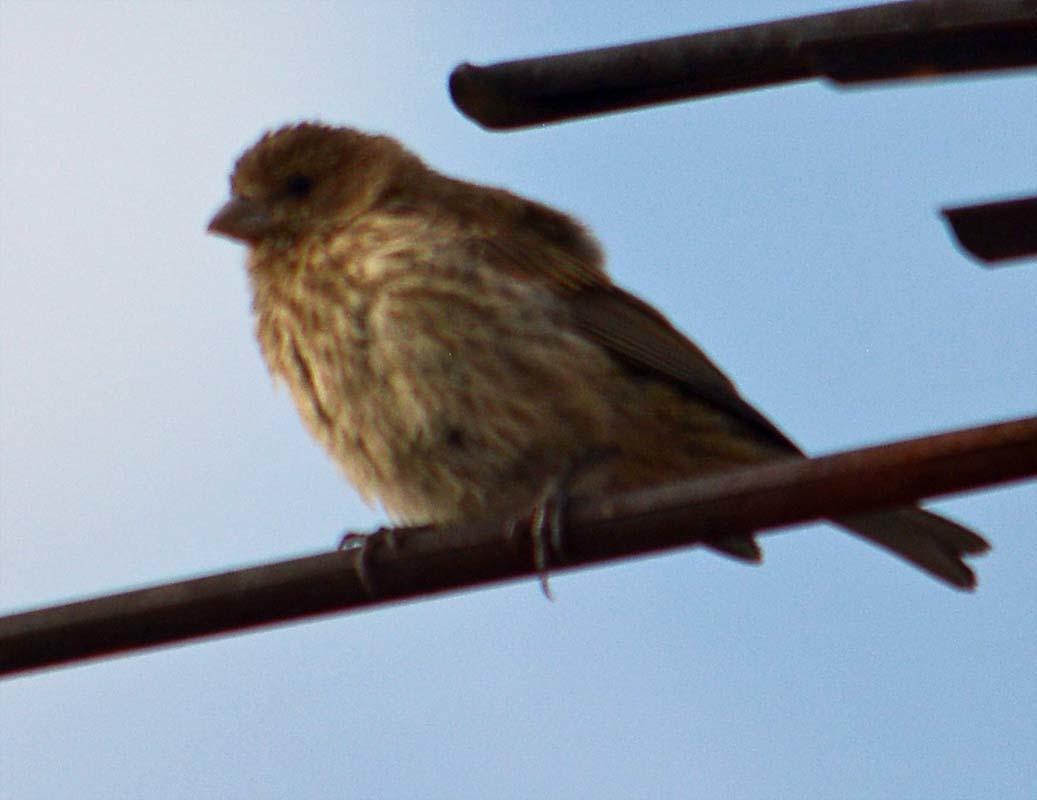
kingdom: Animalia
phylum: Chordata
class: Aves
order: Passeriformes
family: Fringillidae
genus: Haemorhous
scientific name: Haemorhous mexicanus
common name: House finch
